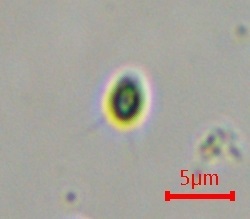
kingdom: Plantae
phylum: Chlorophyta
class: Chlorophyceae
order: Volvocales
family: Dunaliellaceae
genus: Dunaliella
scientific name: Dunaliella viridis
